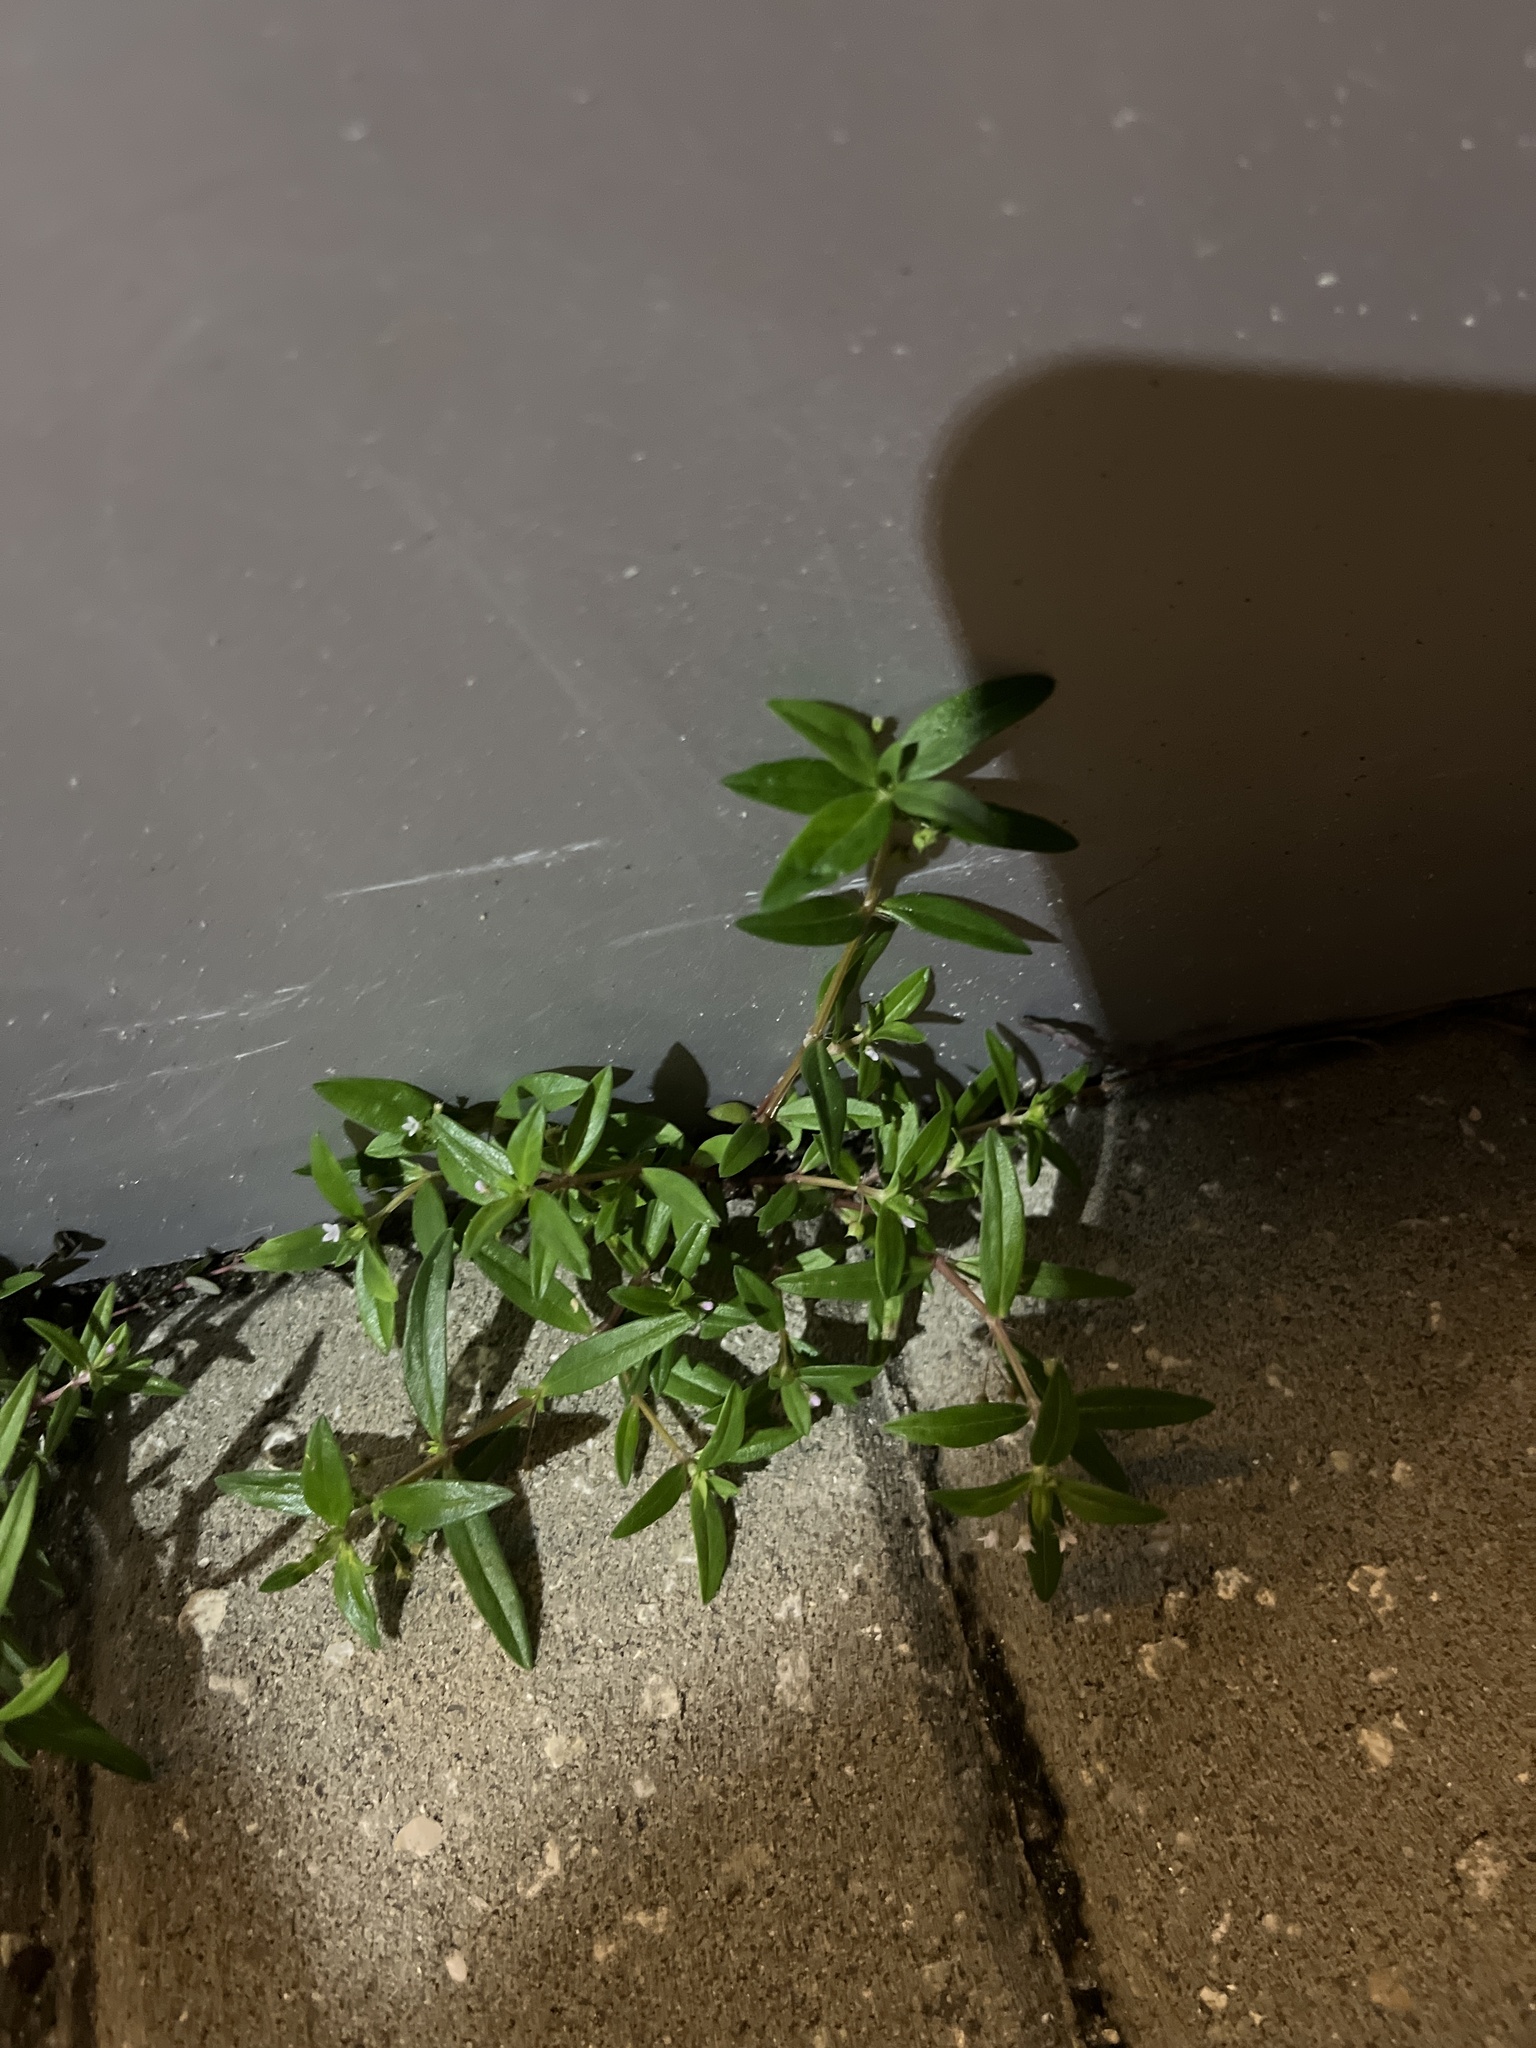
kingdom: Plantae
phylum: Tracheophyta
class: Magnoliopsida
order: Gentianales
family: Rubiaceae
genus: Oldenlandia
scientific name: Oldenlandia corymbosa
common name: Flat-top mille graines
